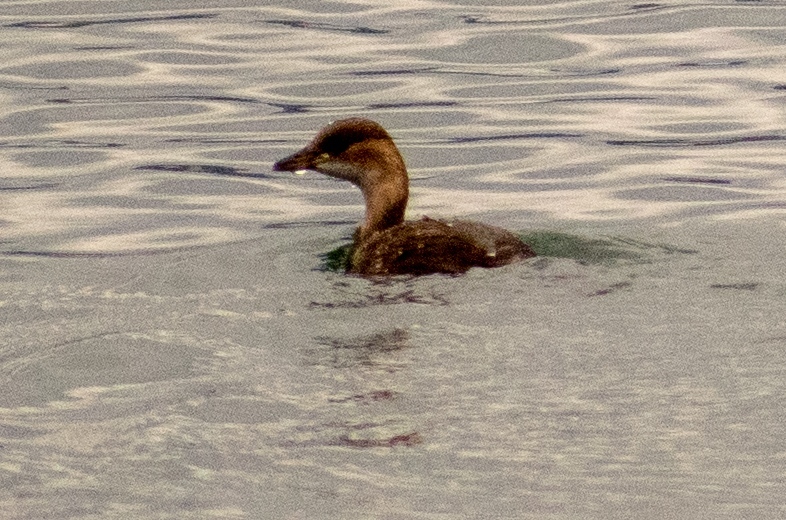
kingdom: Animalia
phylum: Chordata
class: Aves
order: Podicipediformes
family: Podicipedidae
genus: Tachybaptus
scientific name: Tachybaptus ruficollis
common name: Little grebe
